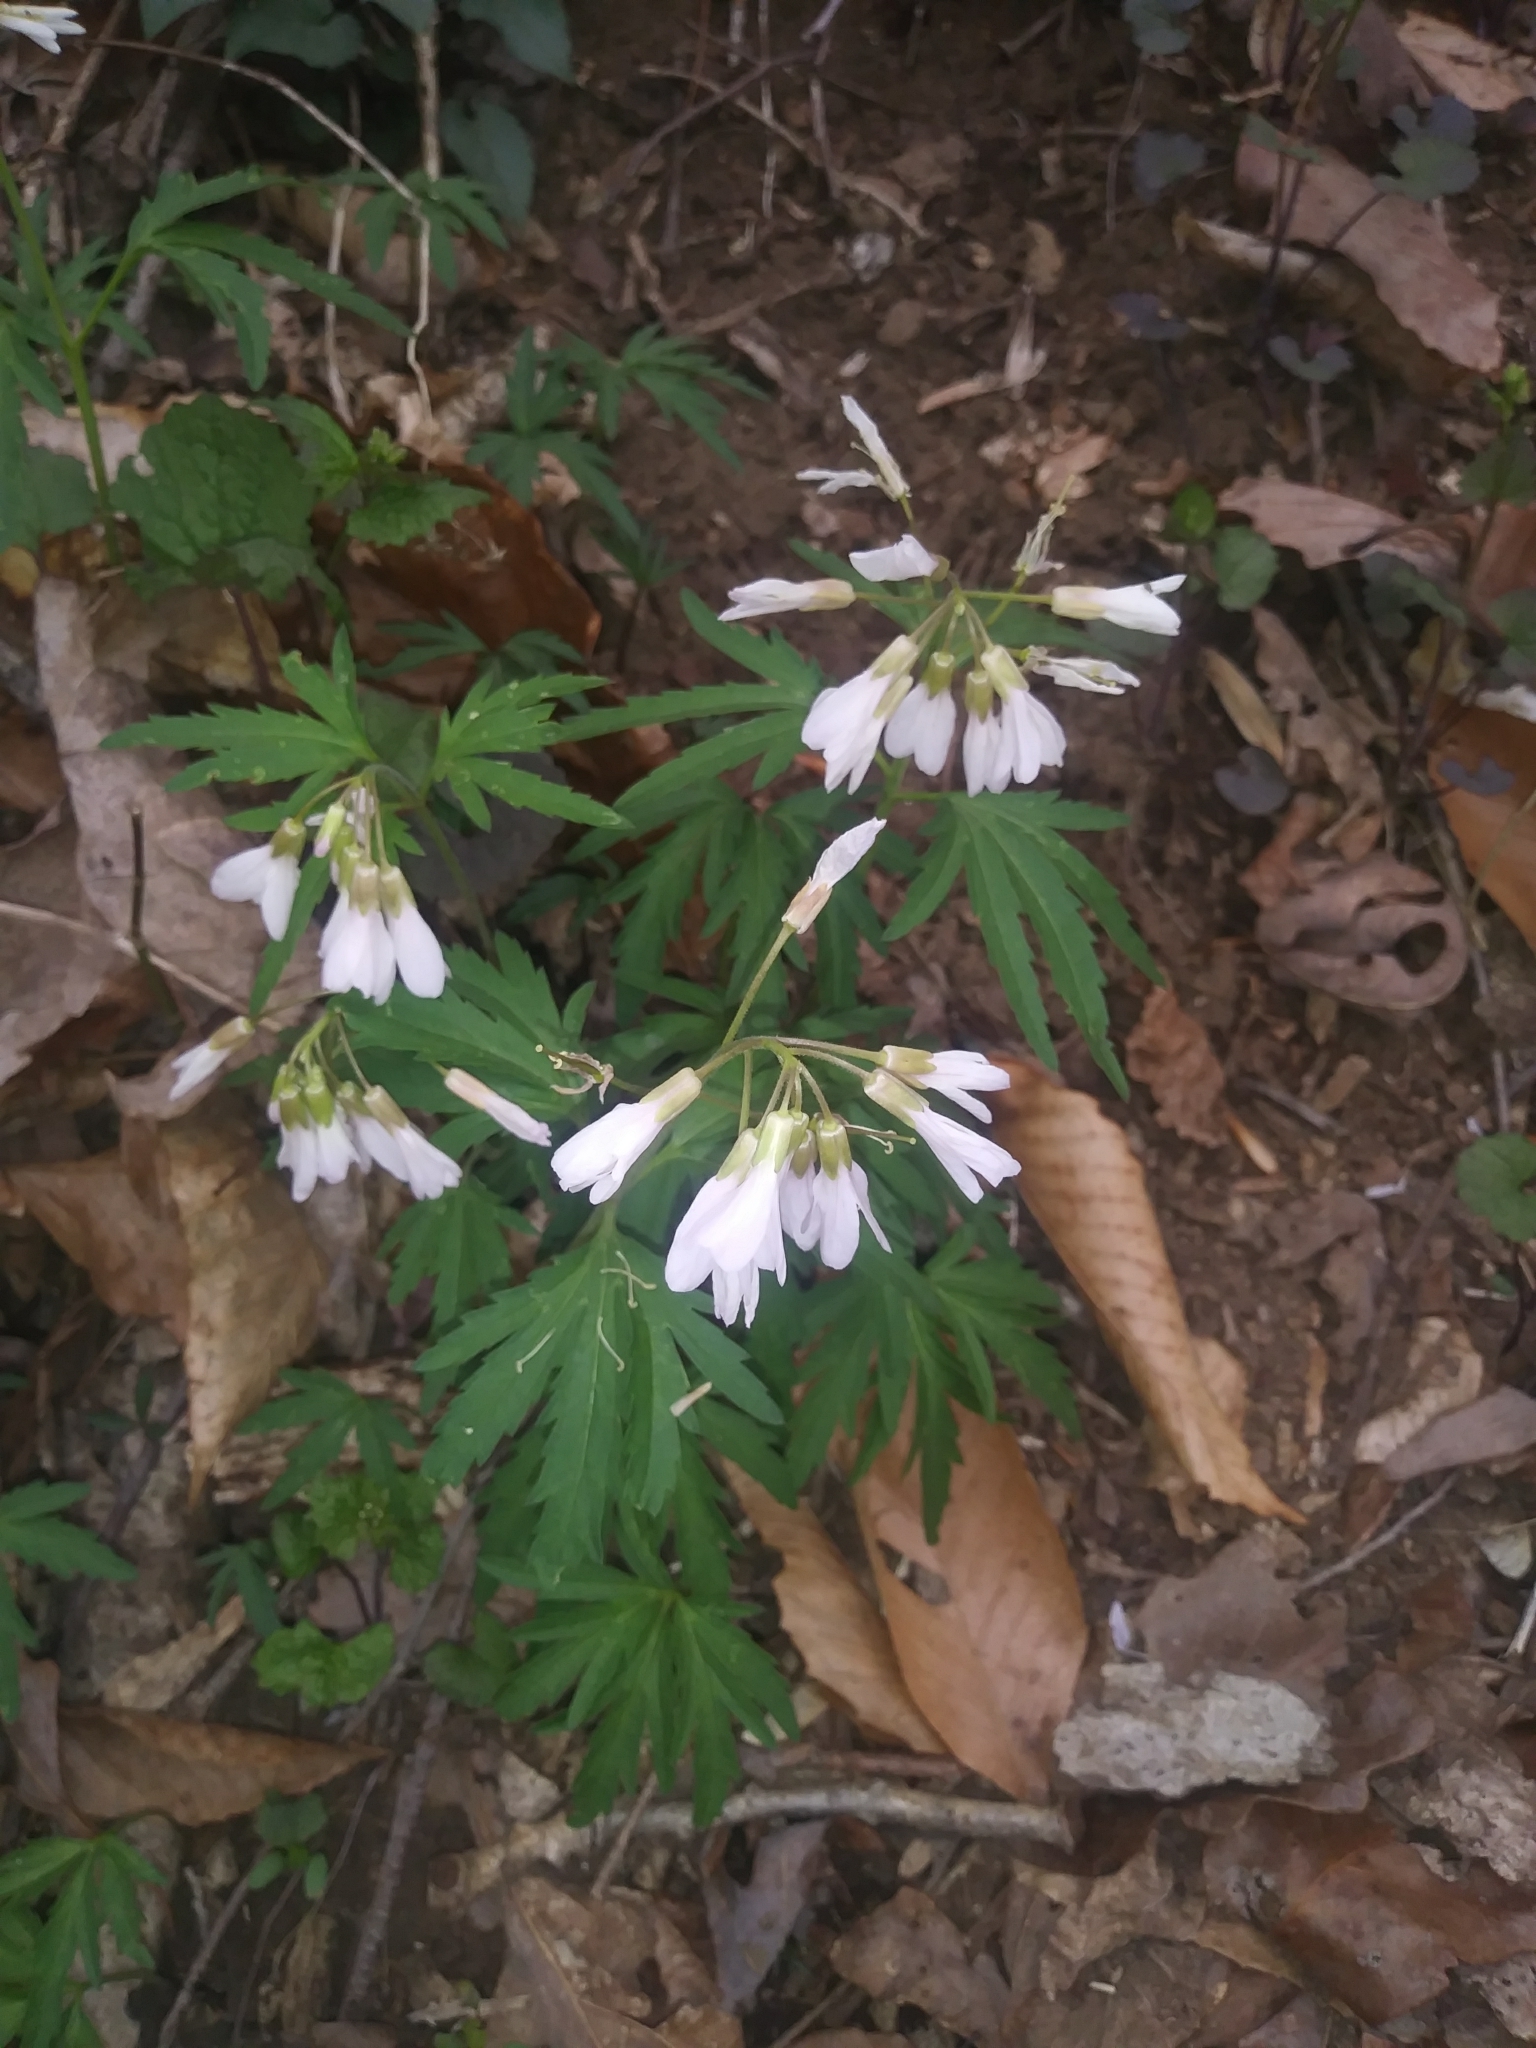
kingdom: Plantae
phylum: Tracheophyta
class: Magnoliopsida
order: Brassicales
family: Brassicaceae
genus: Cardamine
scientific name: Cardamine concatenata
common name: Cut-leaf toothcup
